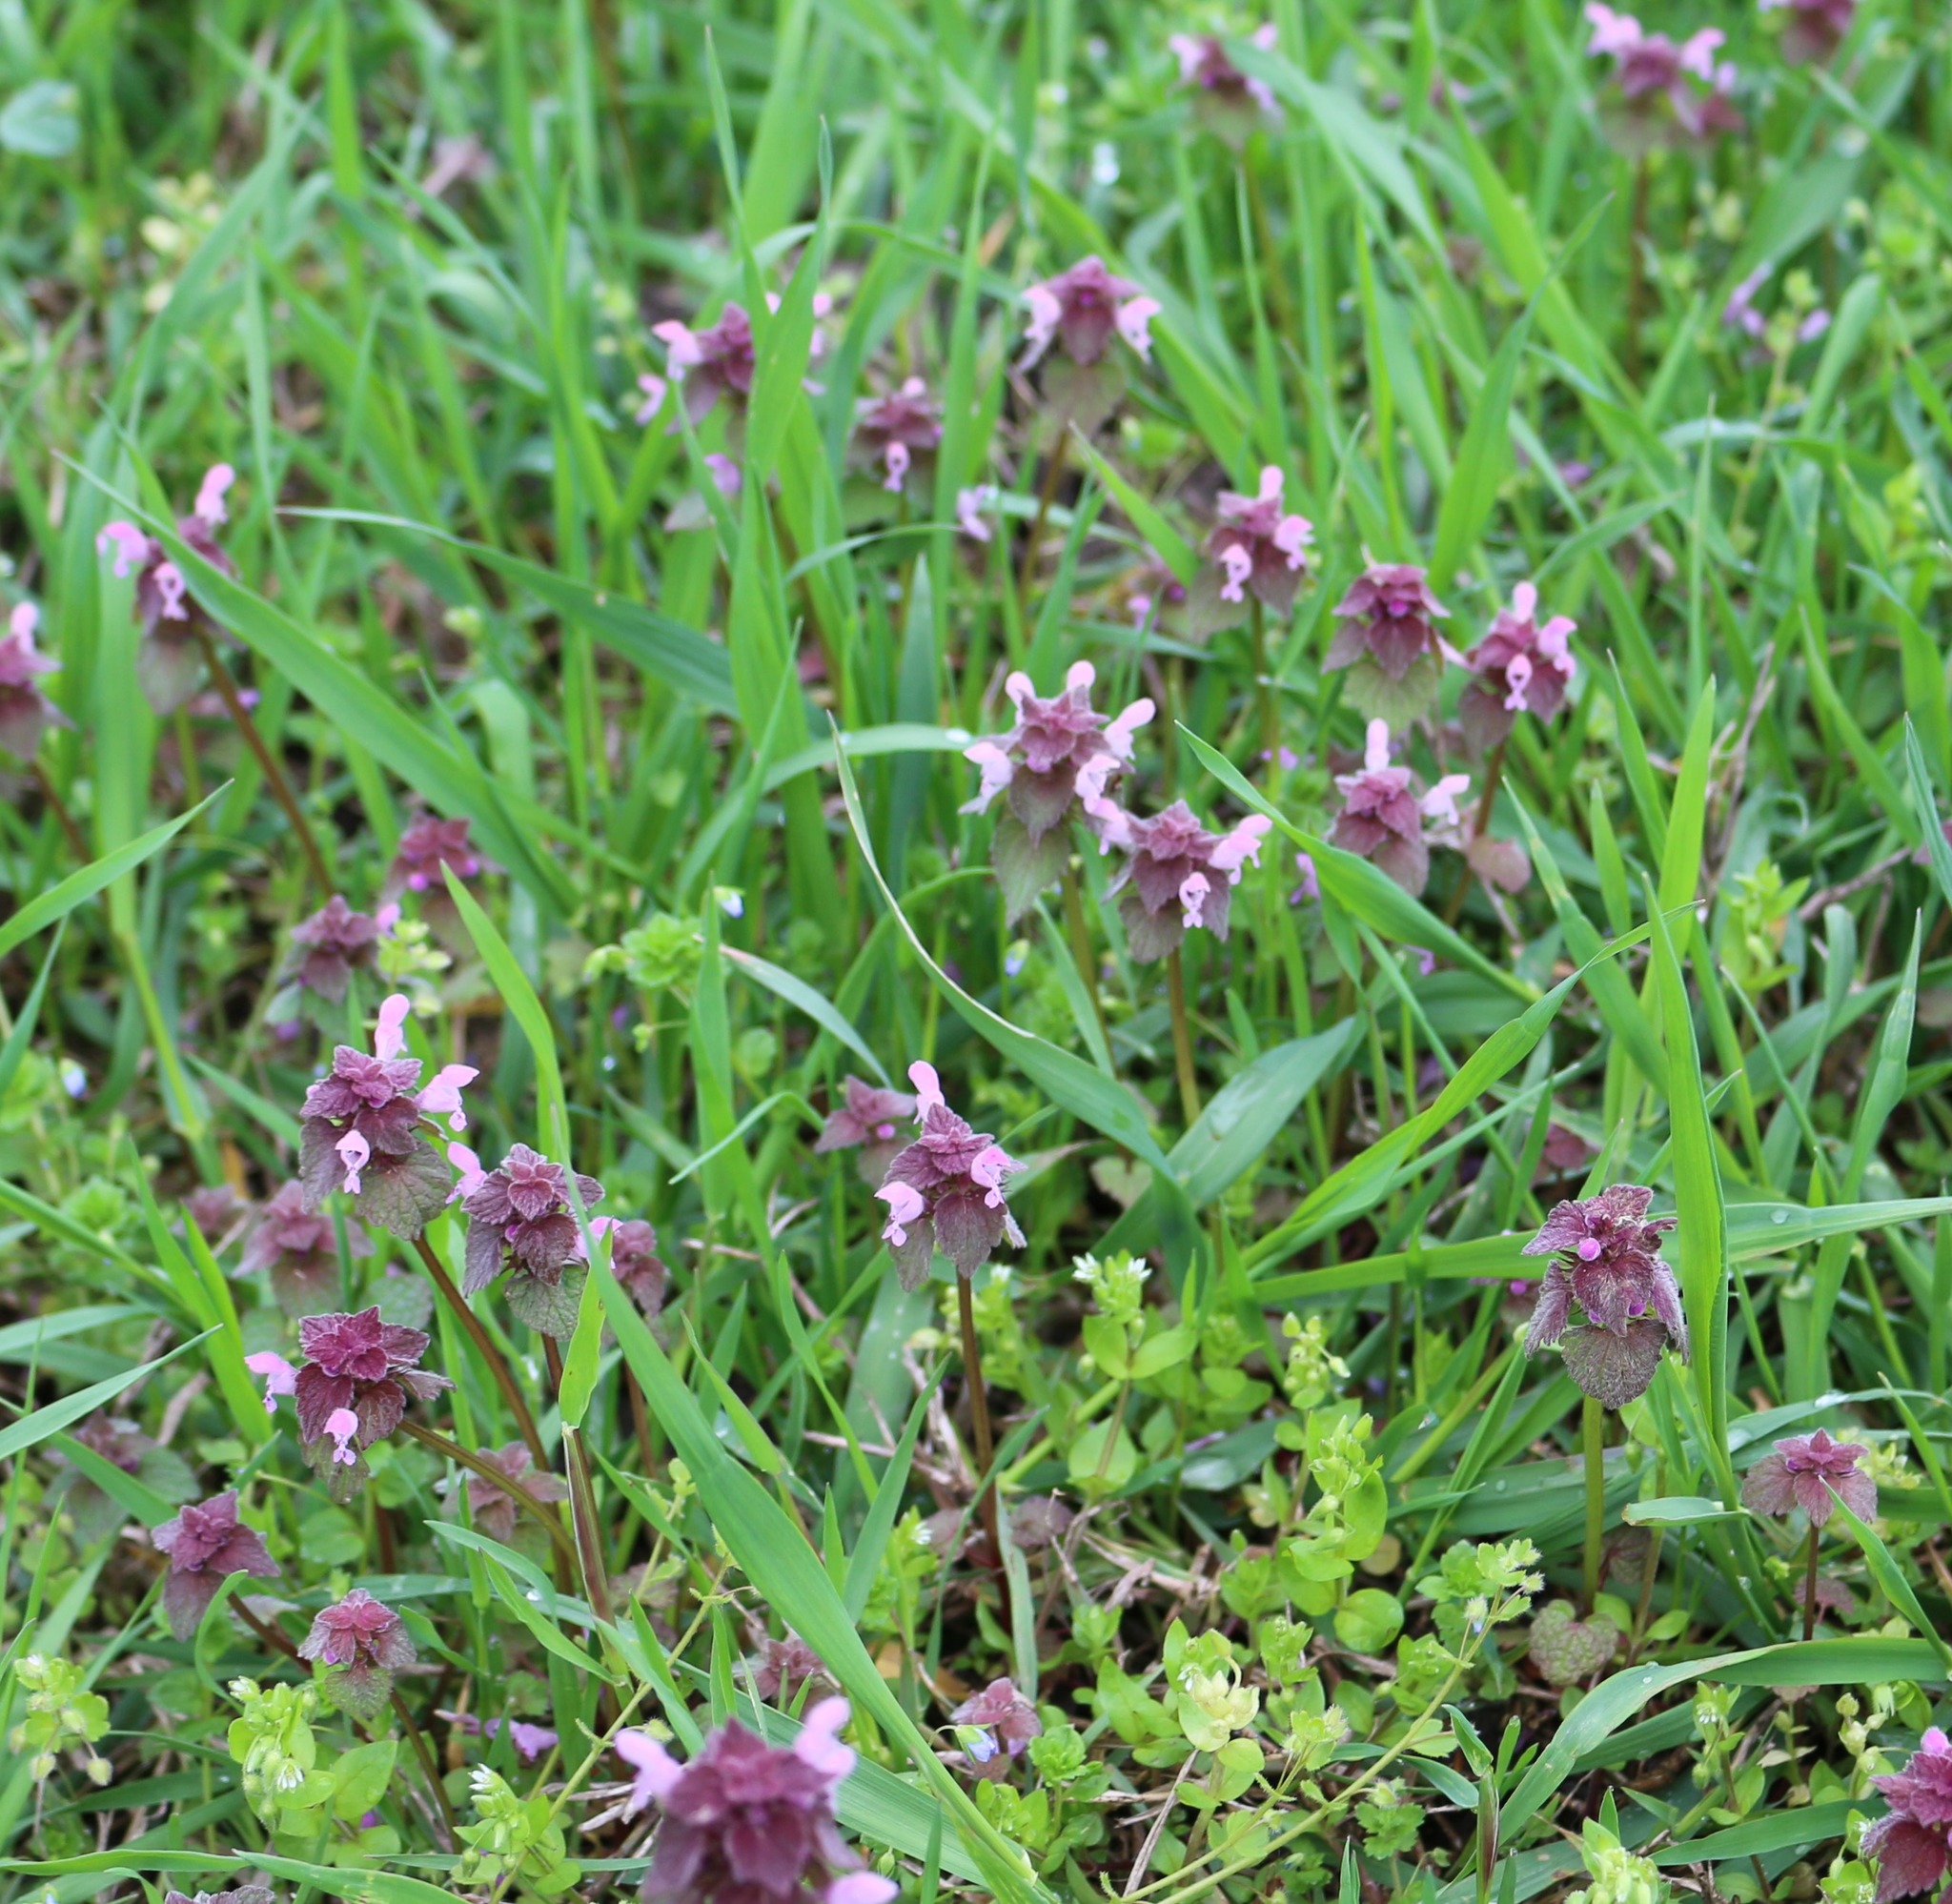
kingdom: Plantae
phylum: Tracheophyta
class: Magnoliopsida
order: Lamiales
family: Lamiaceae
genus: Lamium
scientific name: Lamium purpureum
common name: Red dead-nettle
